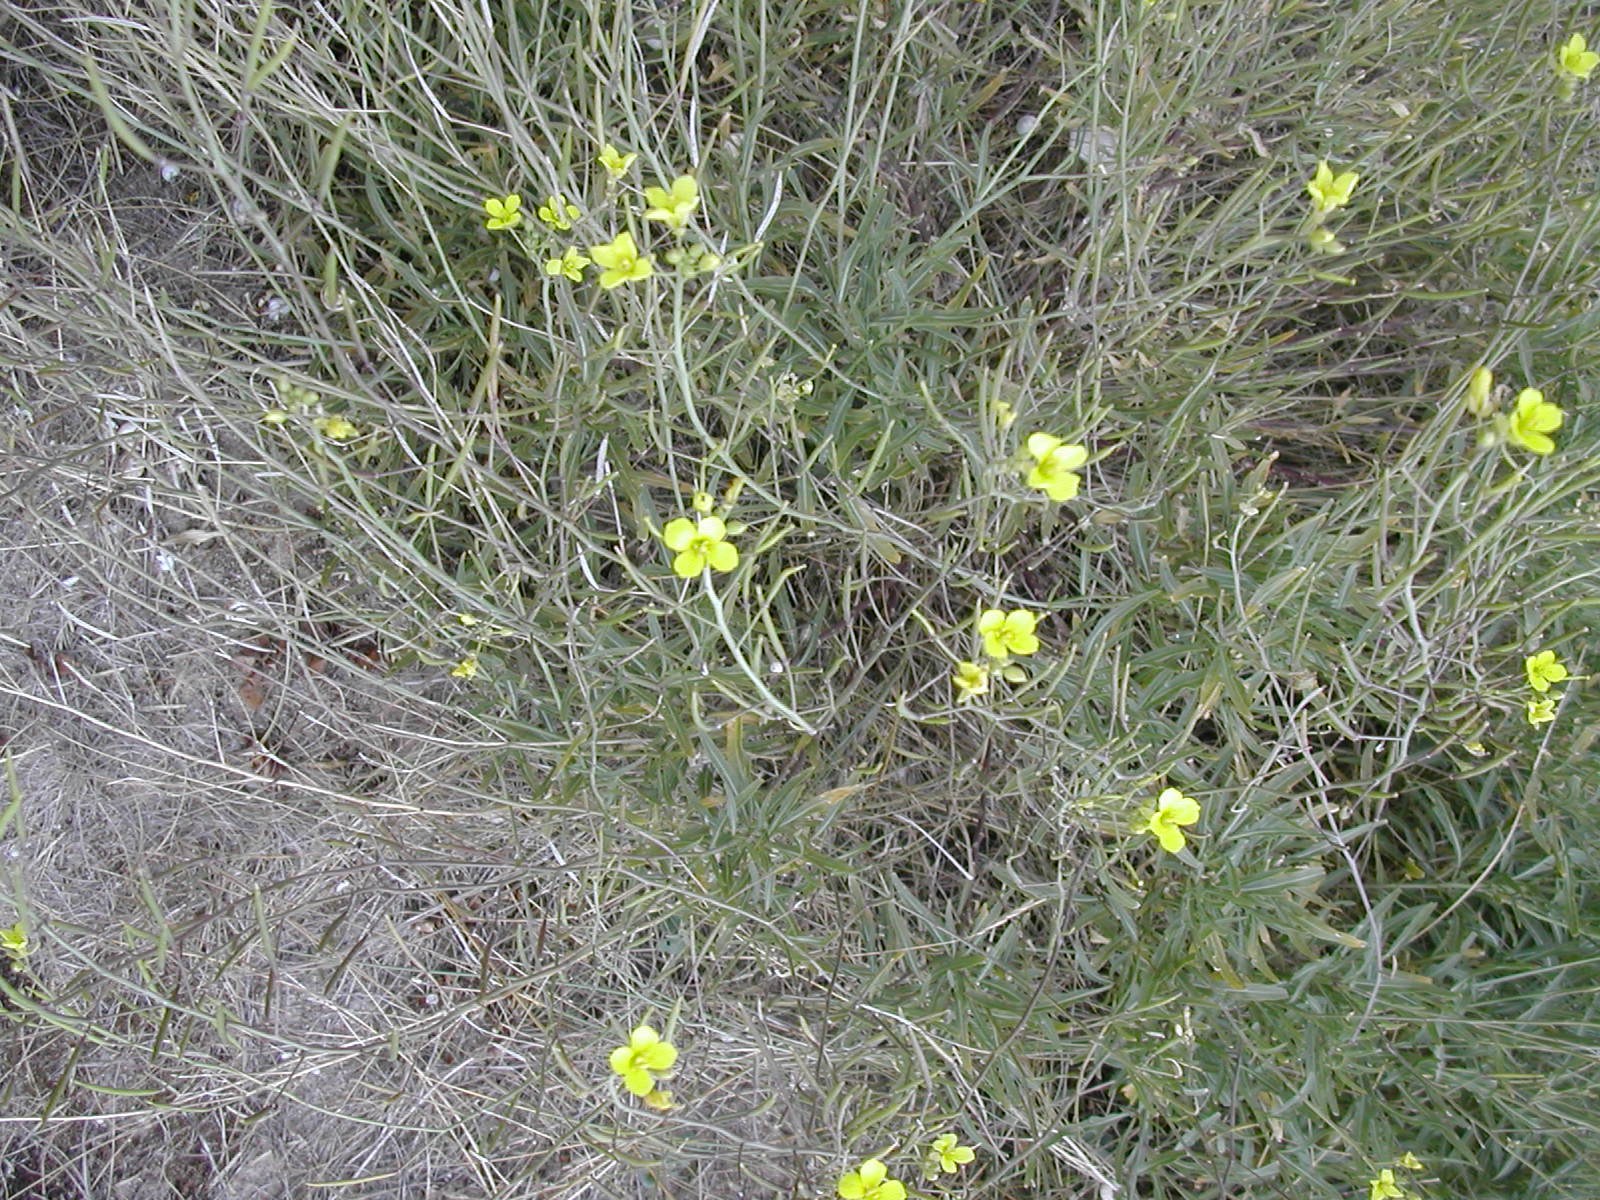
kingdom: Plantae
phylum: Tracheophyta
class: Magnoliopsida
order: Brassicales
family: Brassicaceae
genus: Diplotaxis
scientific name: Diplotaxis tenuifolia
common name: Perennial wall-rocket
